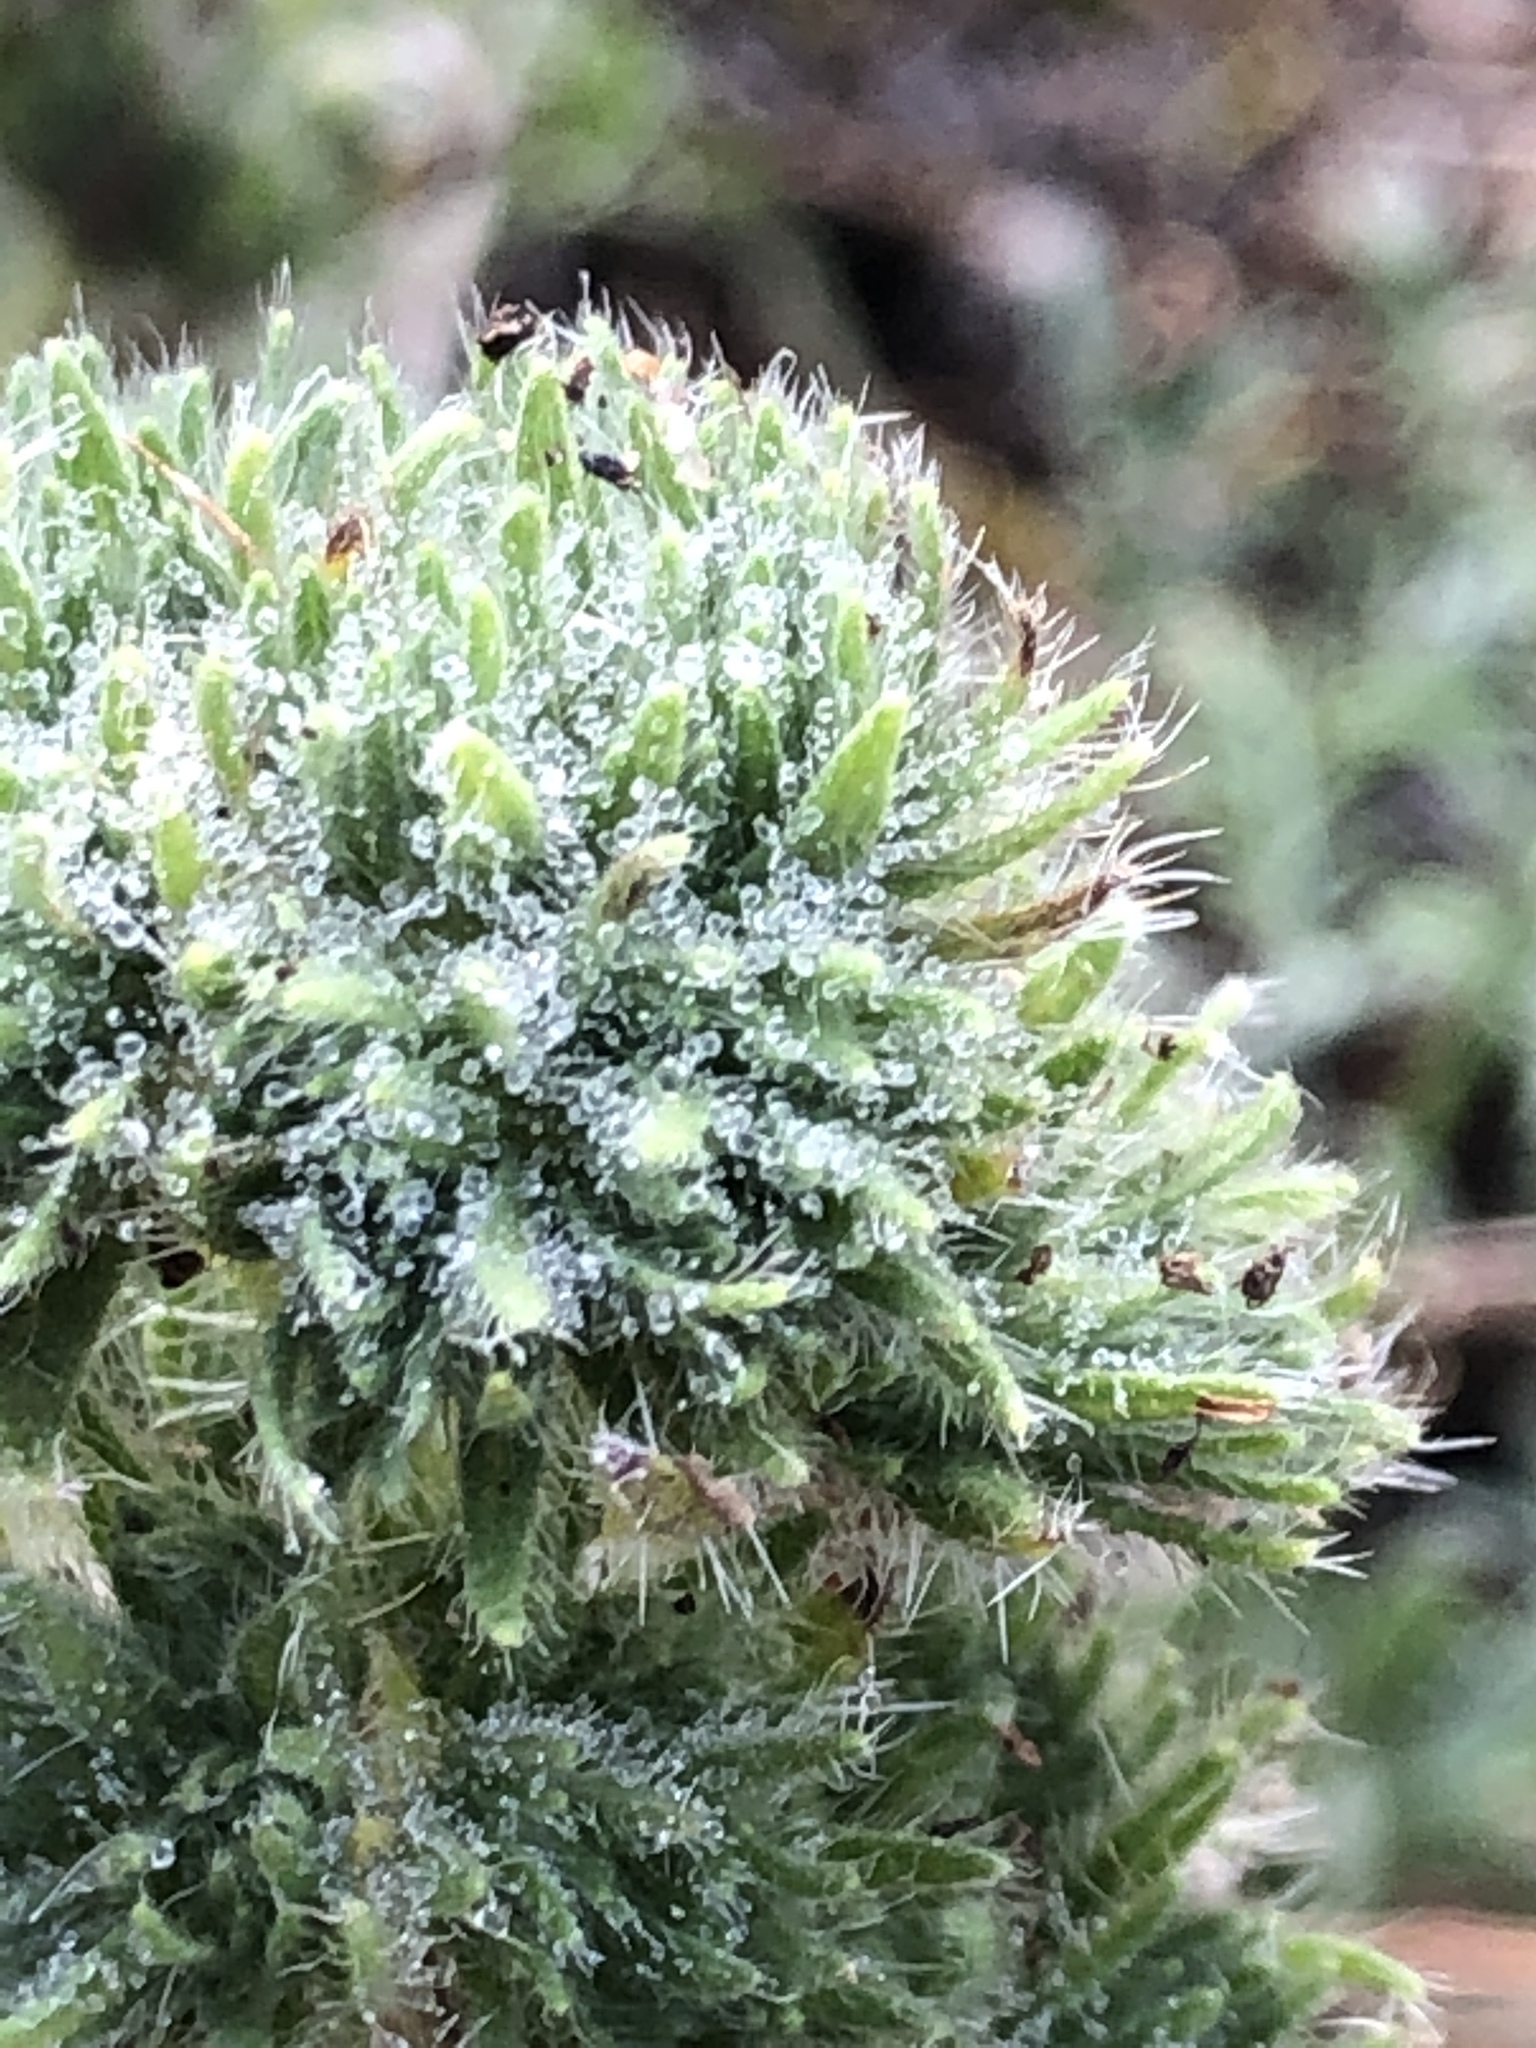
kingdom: Plantae
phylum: Tracheophyta
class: Magnoliopsida
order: Boraginales
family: Boraginaceae
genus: Echium
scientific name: Echium vulgare
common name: Common viper's bugloss
